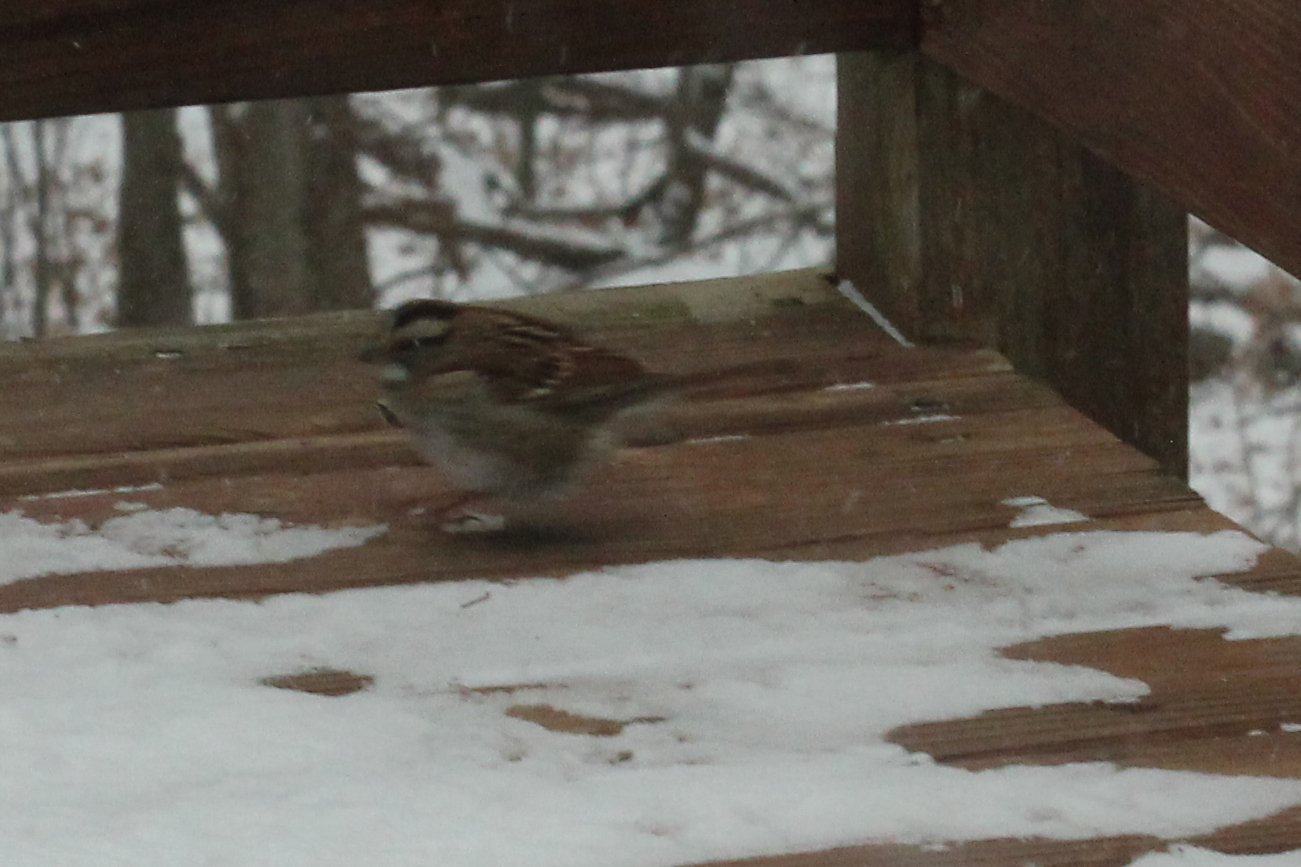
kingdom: Animalia
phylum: Chordata
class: Aves
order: Passeriformes
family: Passerellidae
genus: Zonotrichia
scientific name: Zonotrichia albicollis
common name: White-throated sparrow
